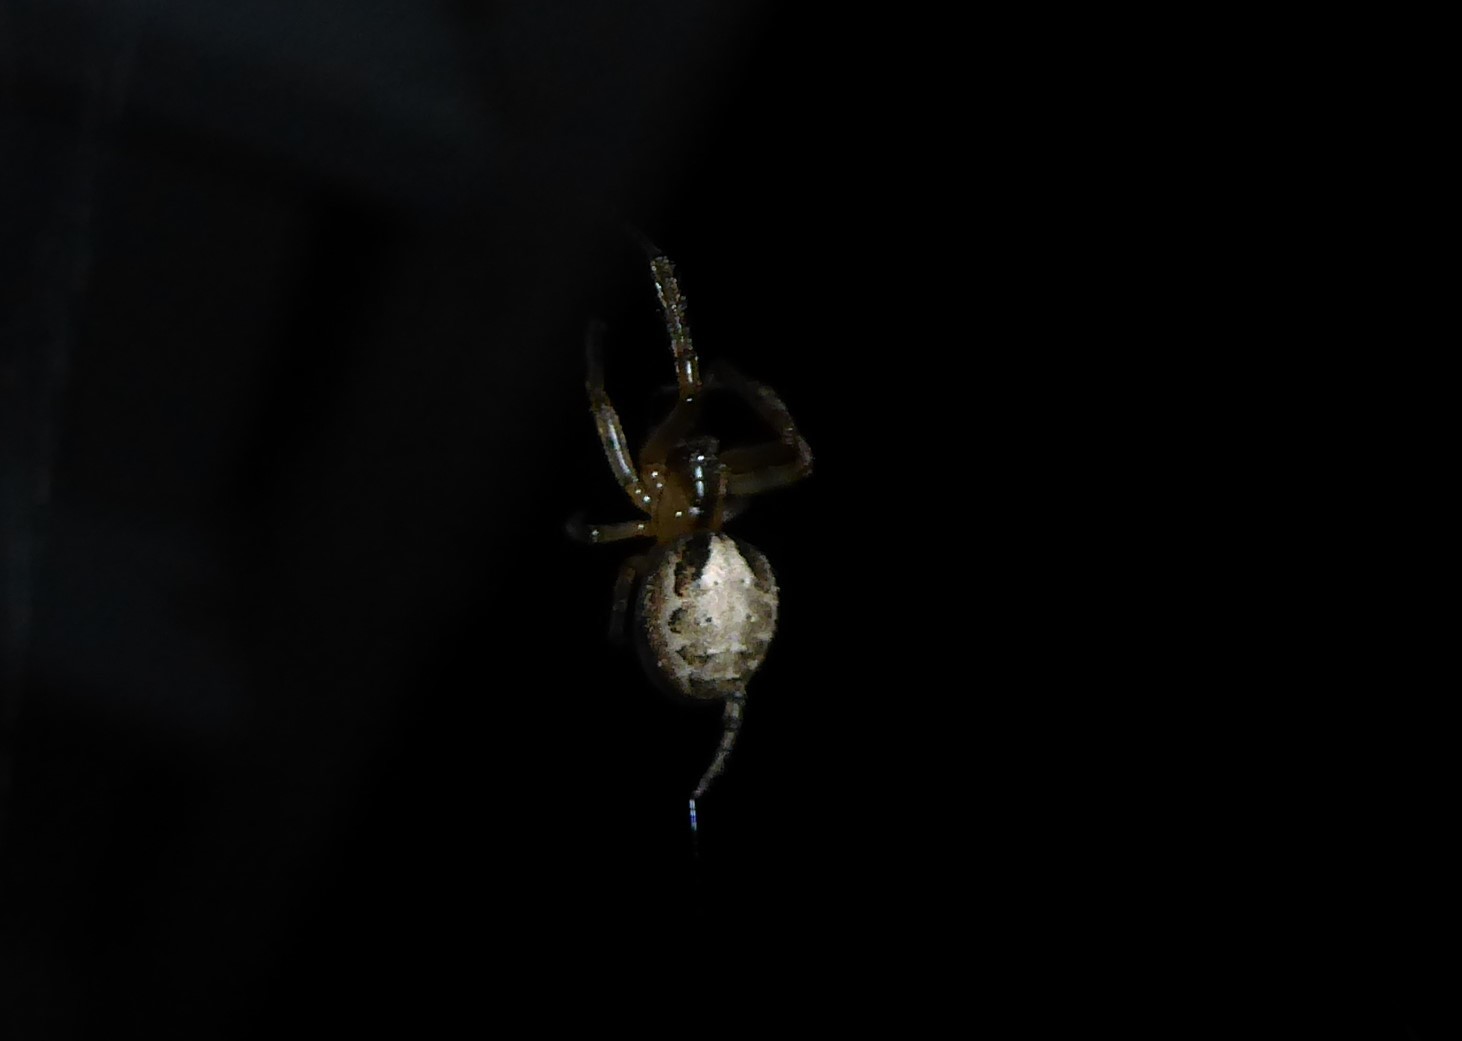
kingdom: Animalia
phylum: Arthropoda
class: Arachnida
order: Araneae
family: Araneidae
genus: Zygiella
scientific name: Zygiella x-notata
